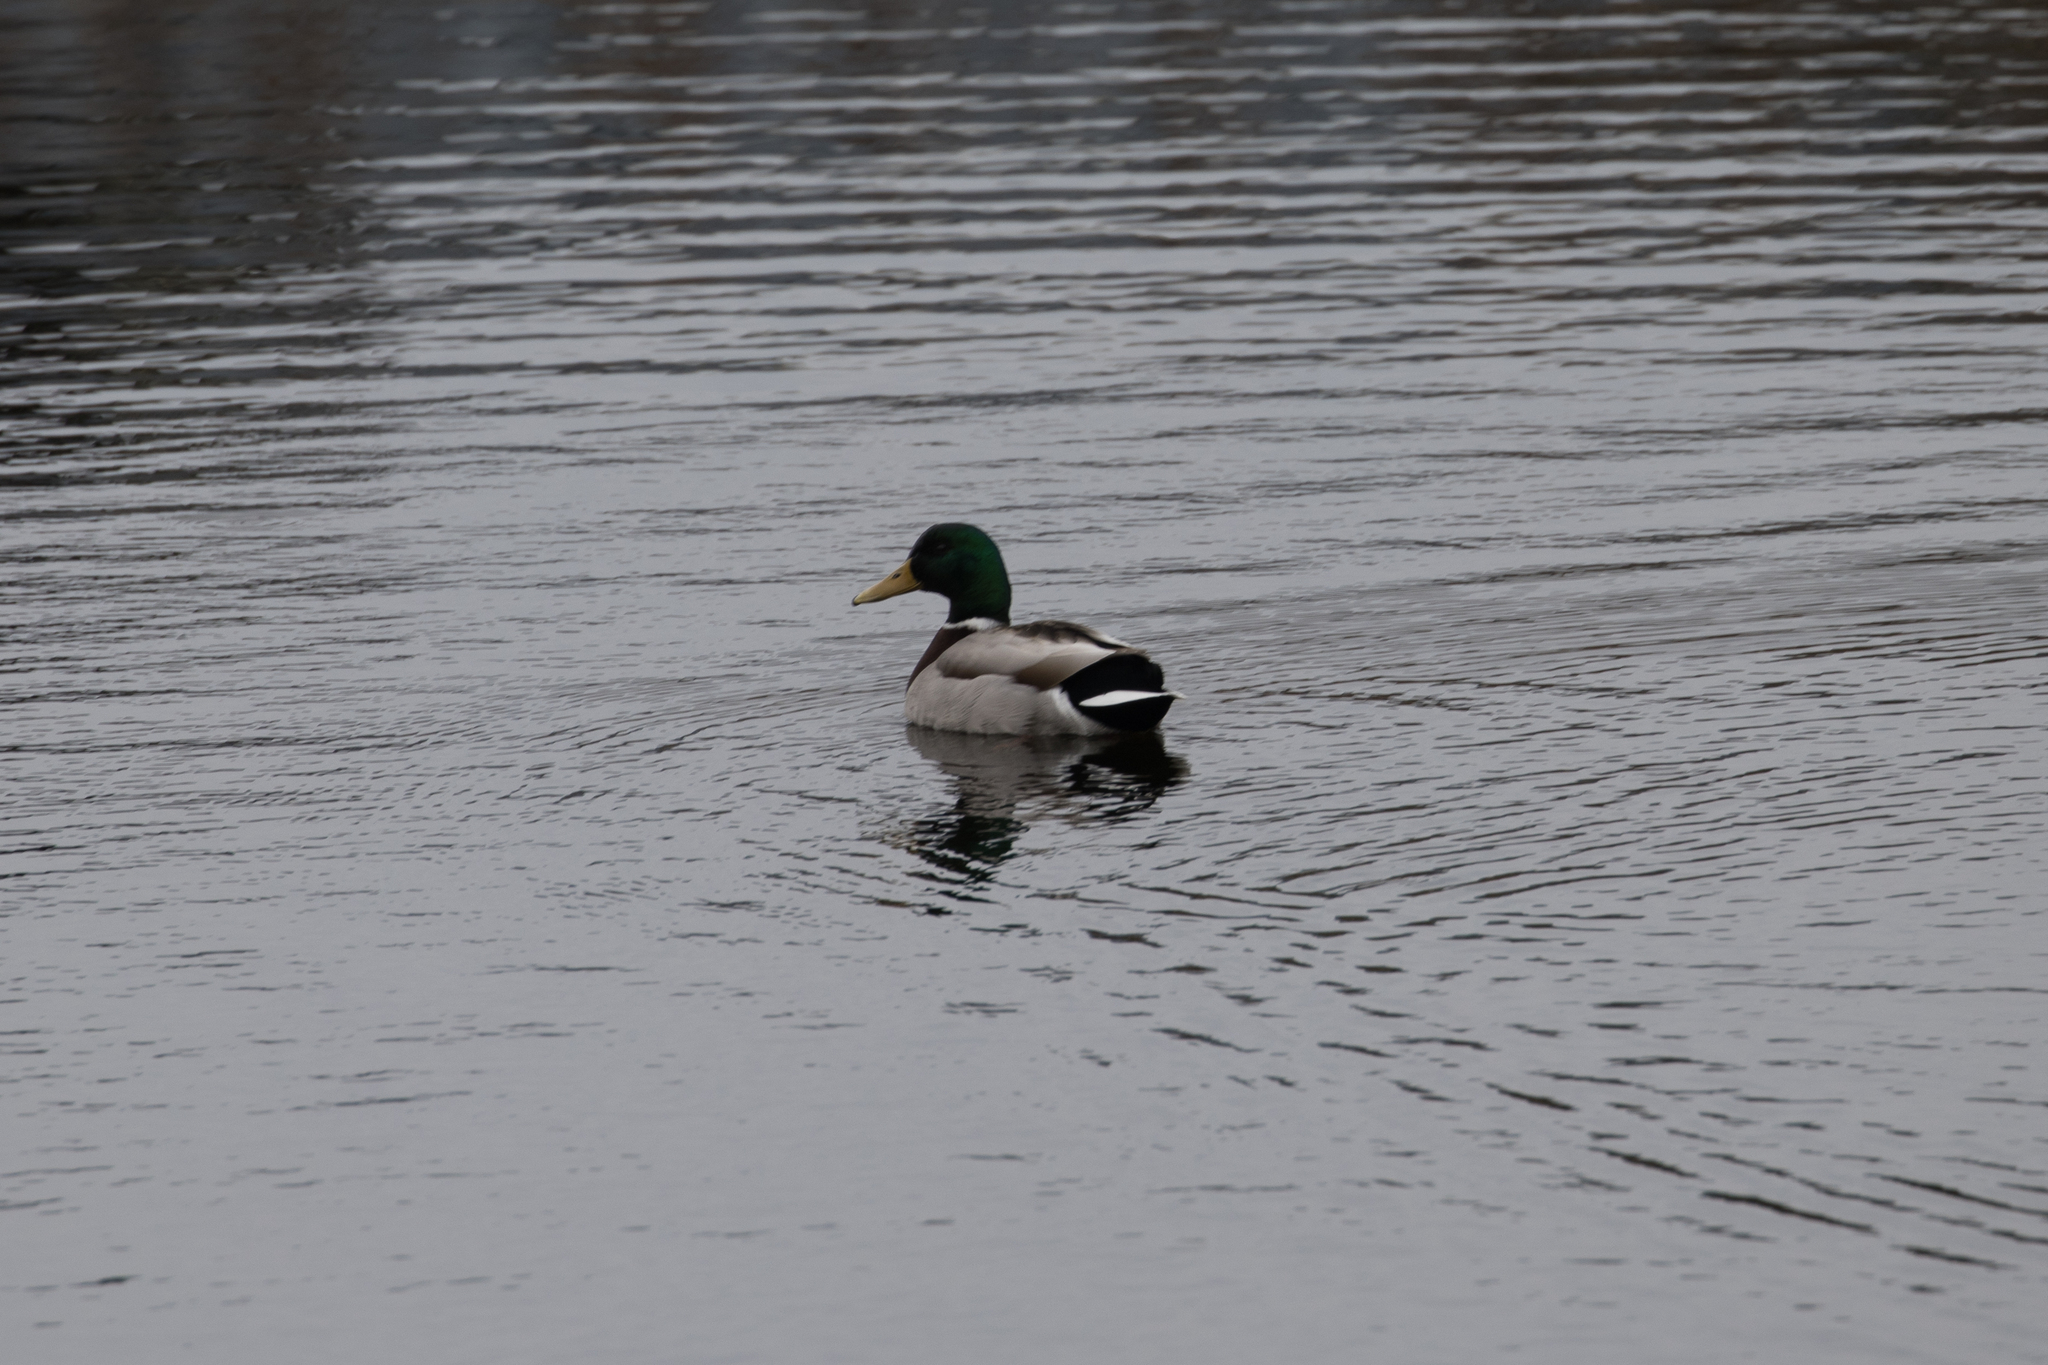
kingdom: Animalia
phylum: Chordata
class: Aves
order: Anseriformes
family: Anatidae
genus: Anas
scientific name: Anas platyrhynchos
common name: Mallard
